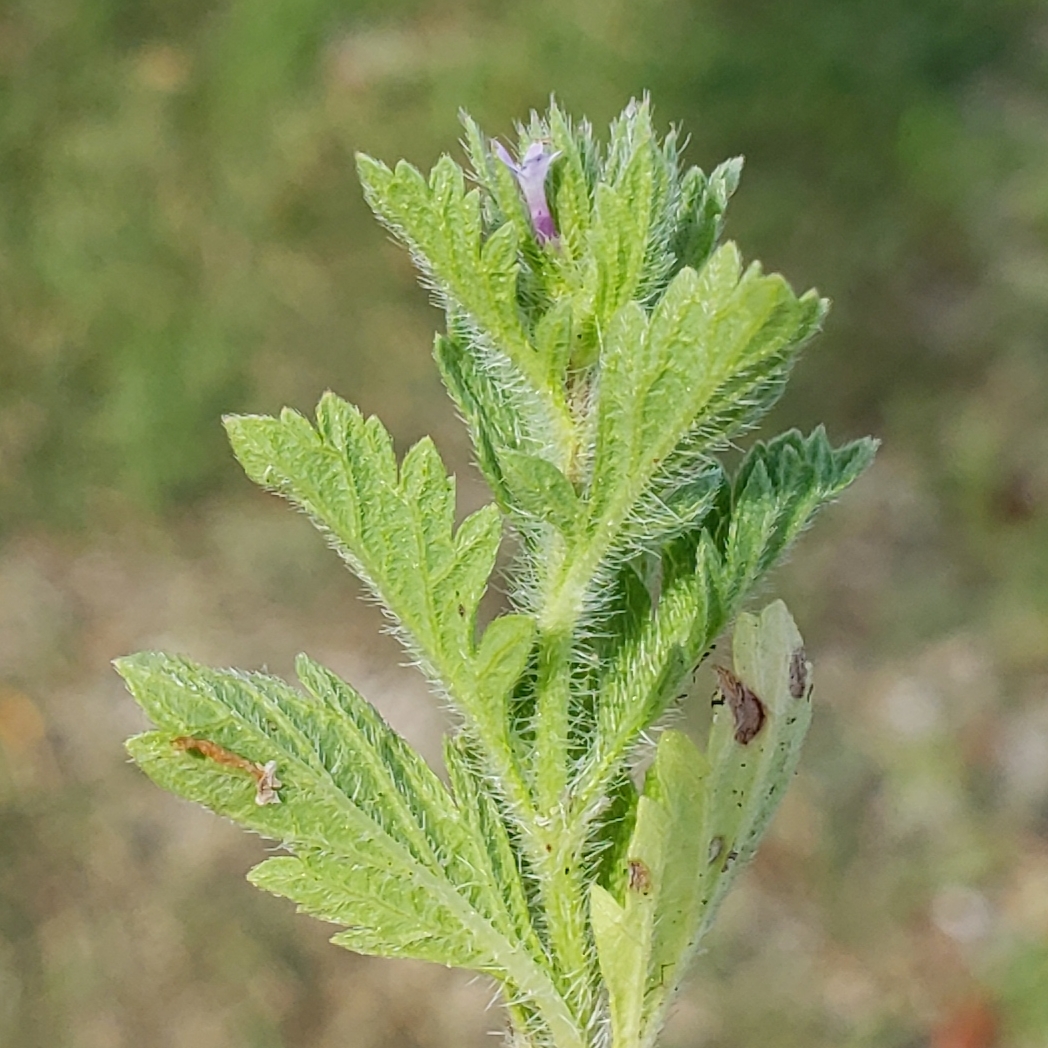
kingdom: Plantae
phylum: Tracheophyta
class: Magnoliopsida
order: Lamiales
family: Verbenaceae
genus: Verbena
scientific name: Verbena bracteata
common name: Bracted vervain
